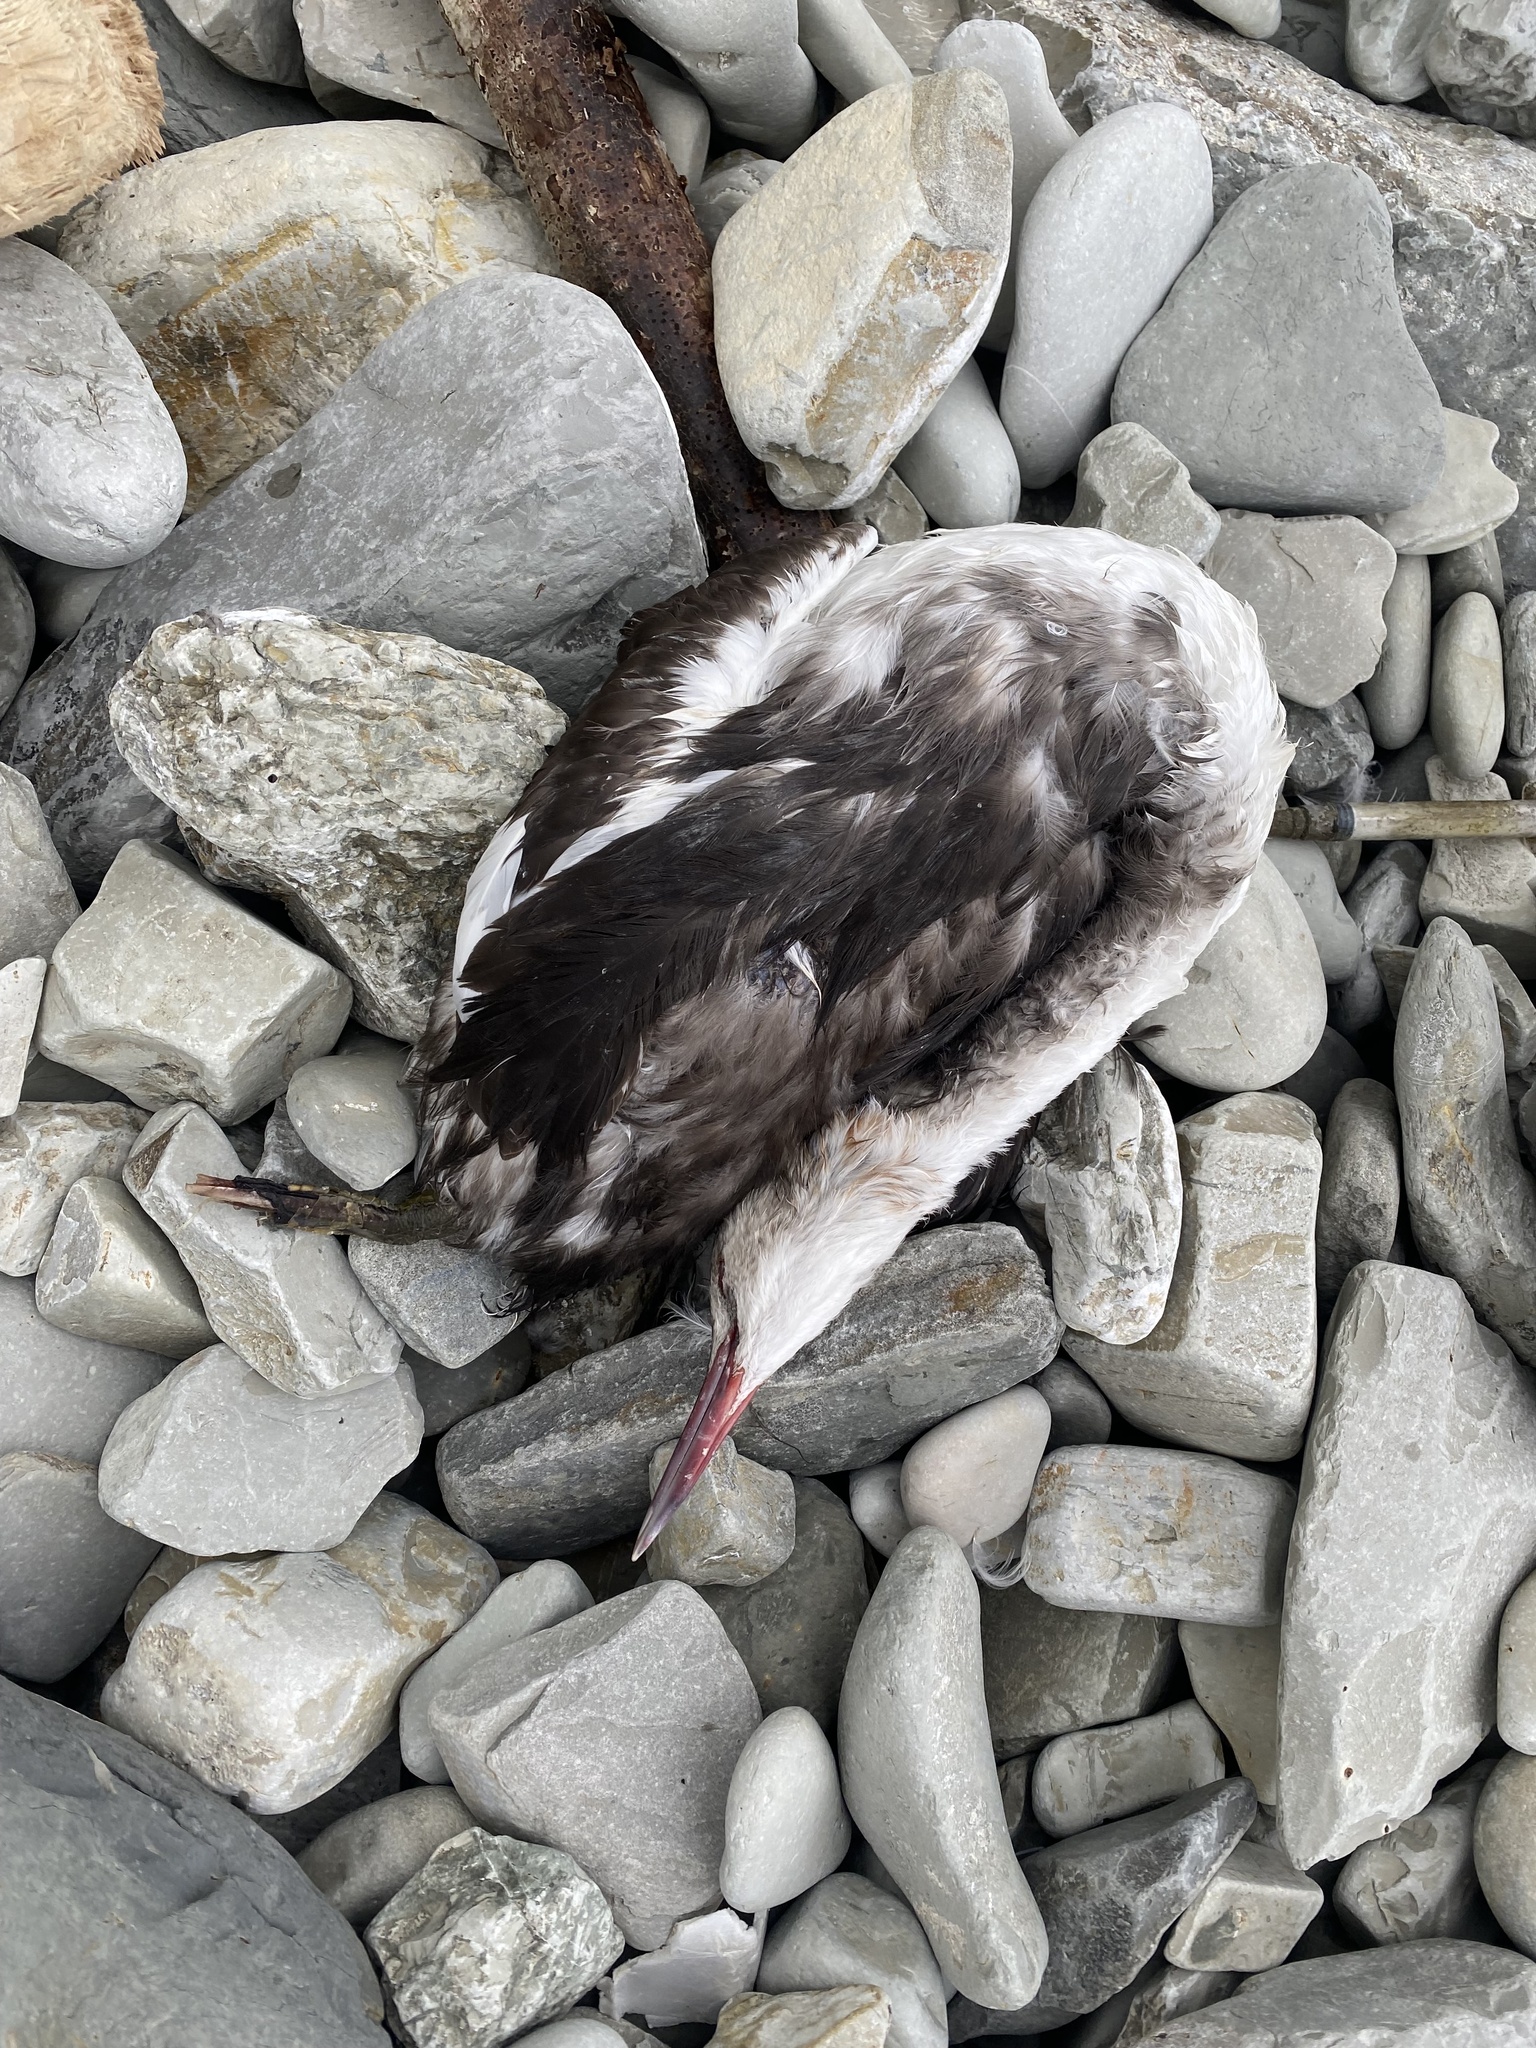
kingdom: Animalia
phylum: Chordata
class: Aves
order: Podicipediformes
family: Podicipedidae
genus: Podiceps
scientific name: Podiceps cristatus
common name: Great crested grebe
